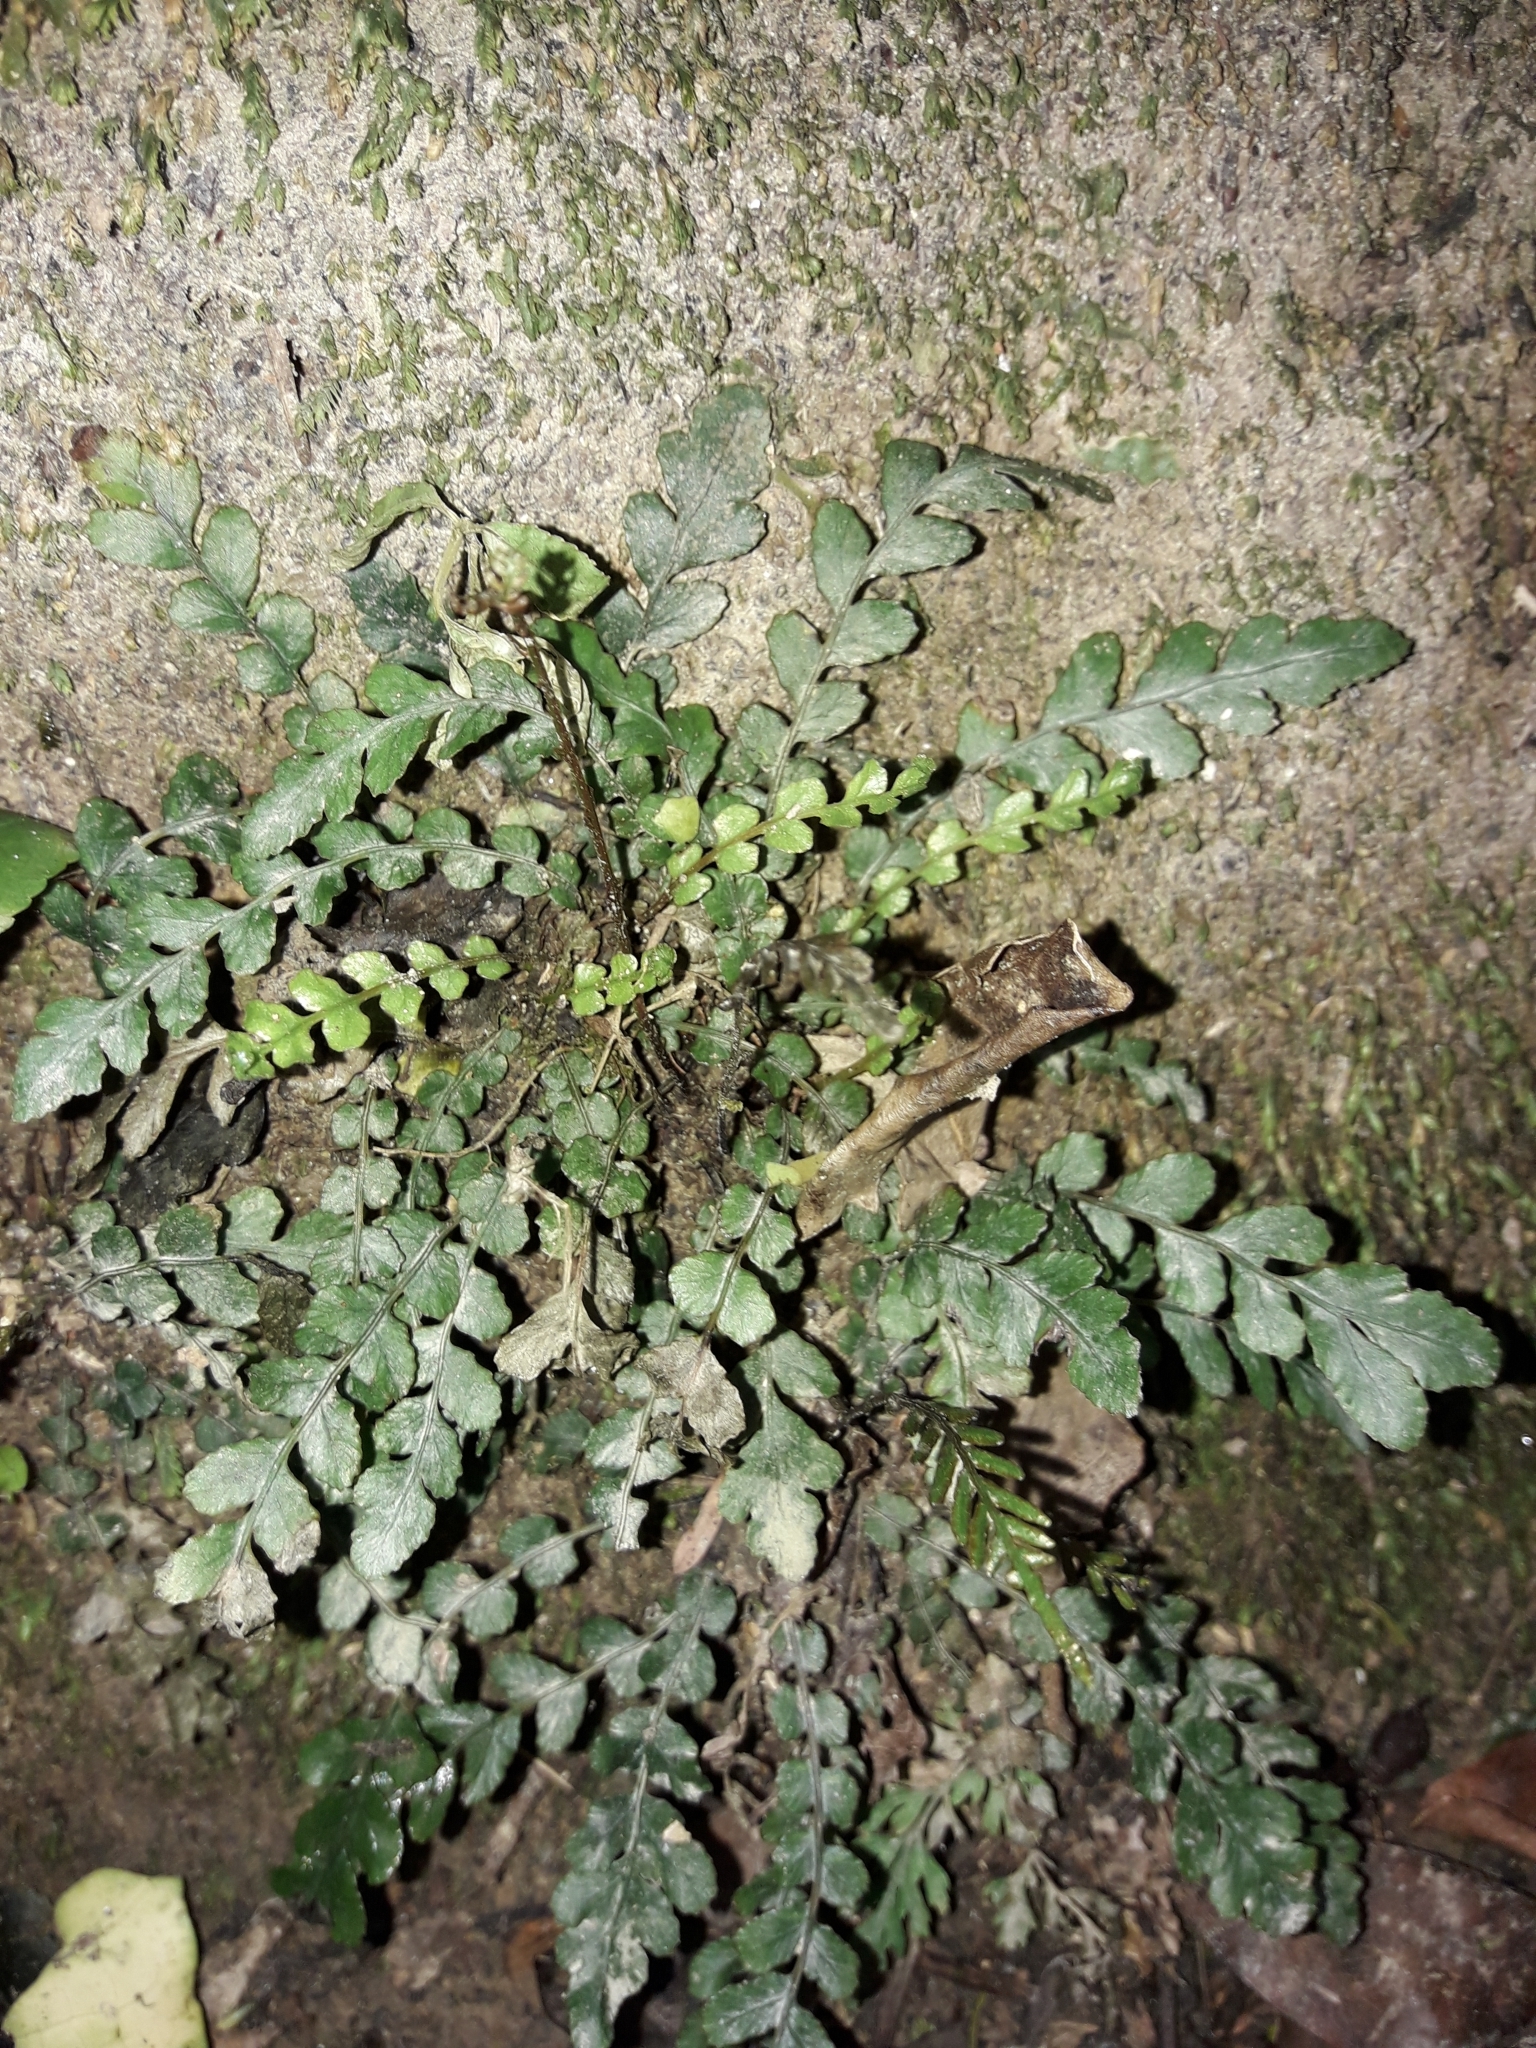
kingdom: Plantae
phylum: Tracheophyta
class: Polypodiopsida
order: Polypodiales
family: Blechnaceae
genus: Austroblechnum
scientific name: Austroblechnum membranaceum
